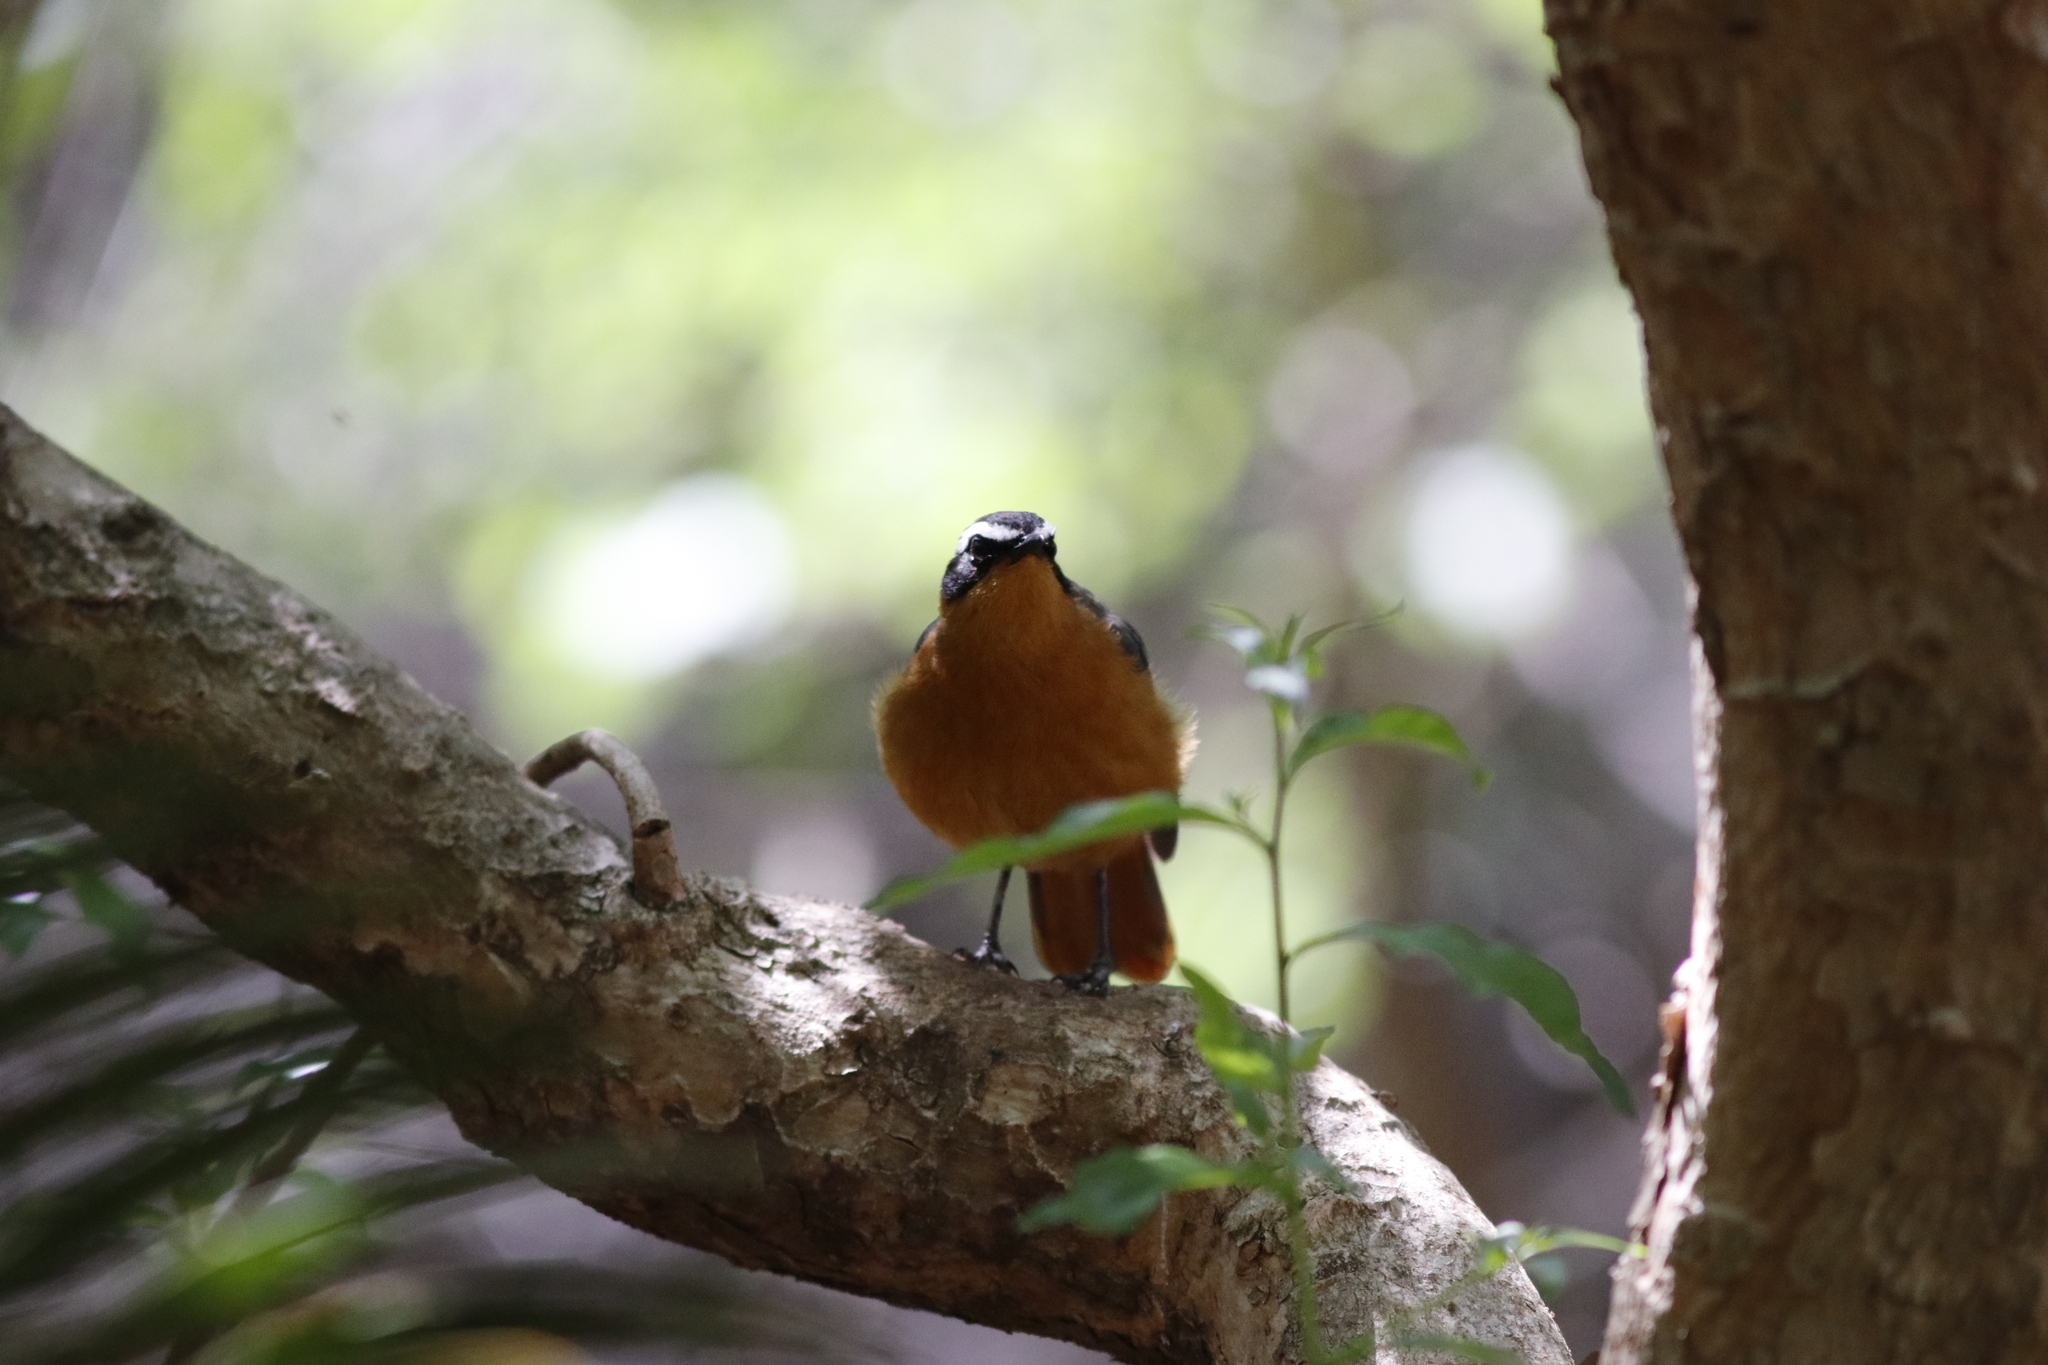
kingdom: Animalia
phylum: Chordata
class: Aves
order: Passeriformes
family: Muscicapidae
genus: Cossypha
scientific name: Cossypha heuglini
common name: White-browed robin-chat
